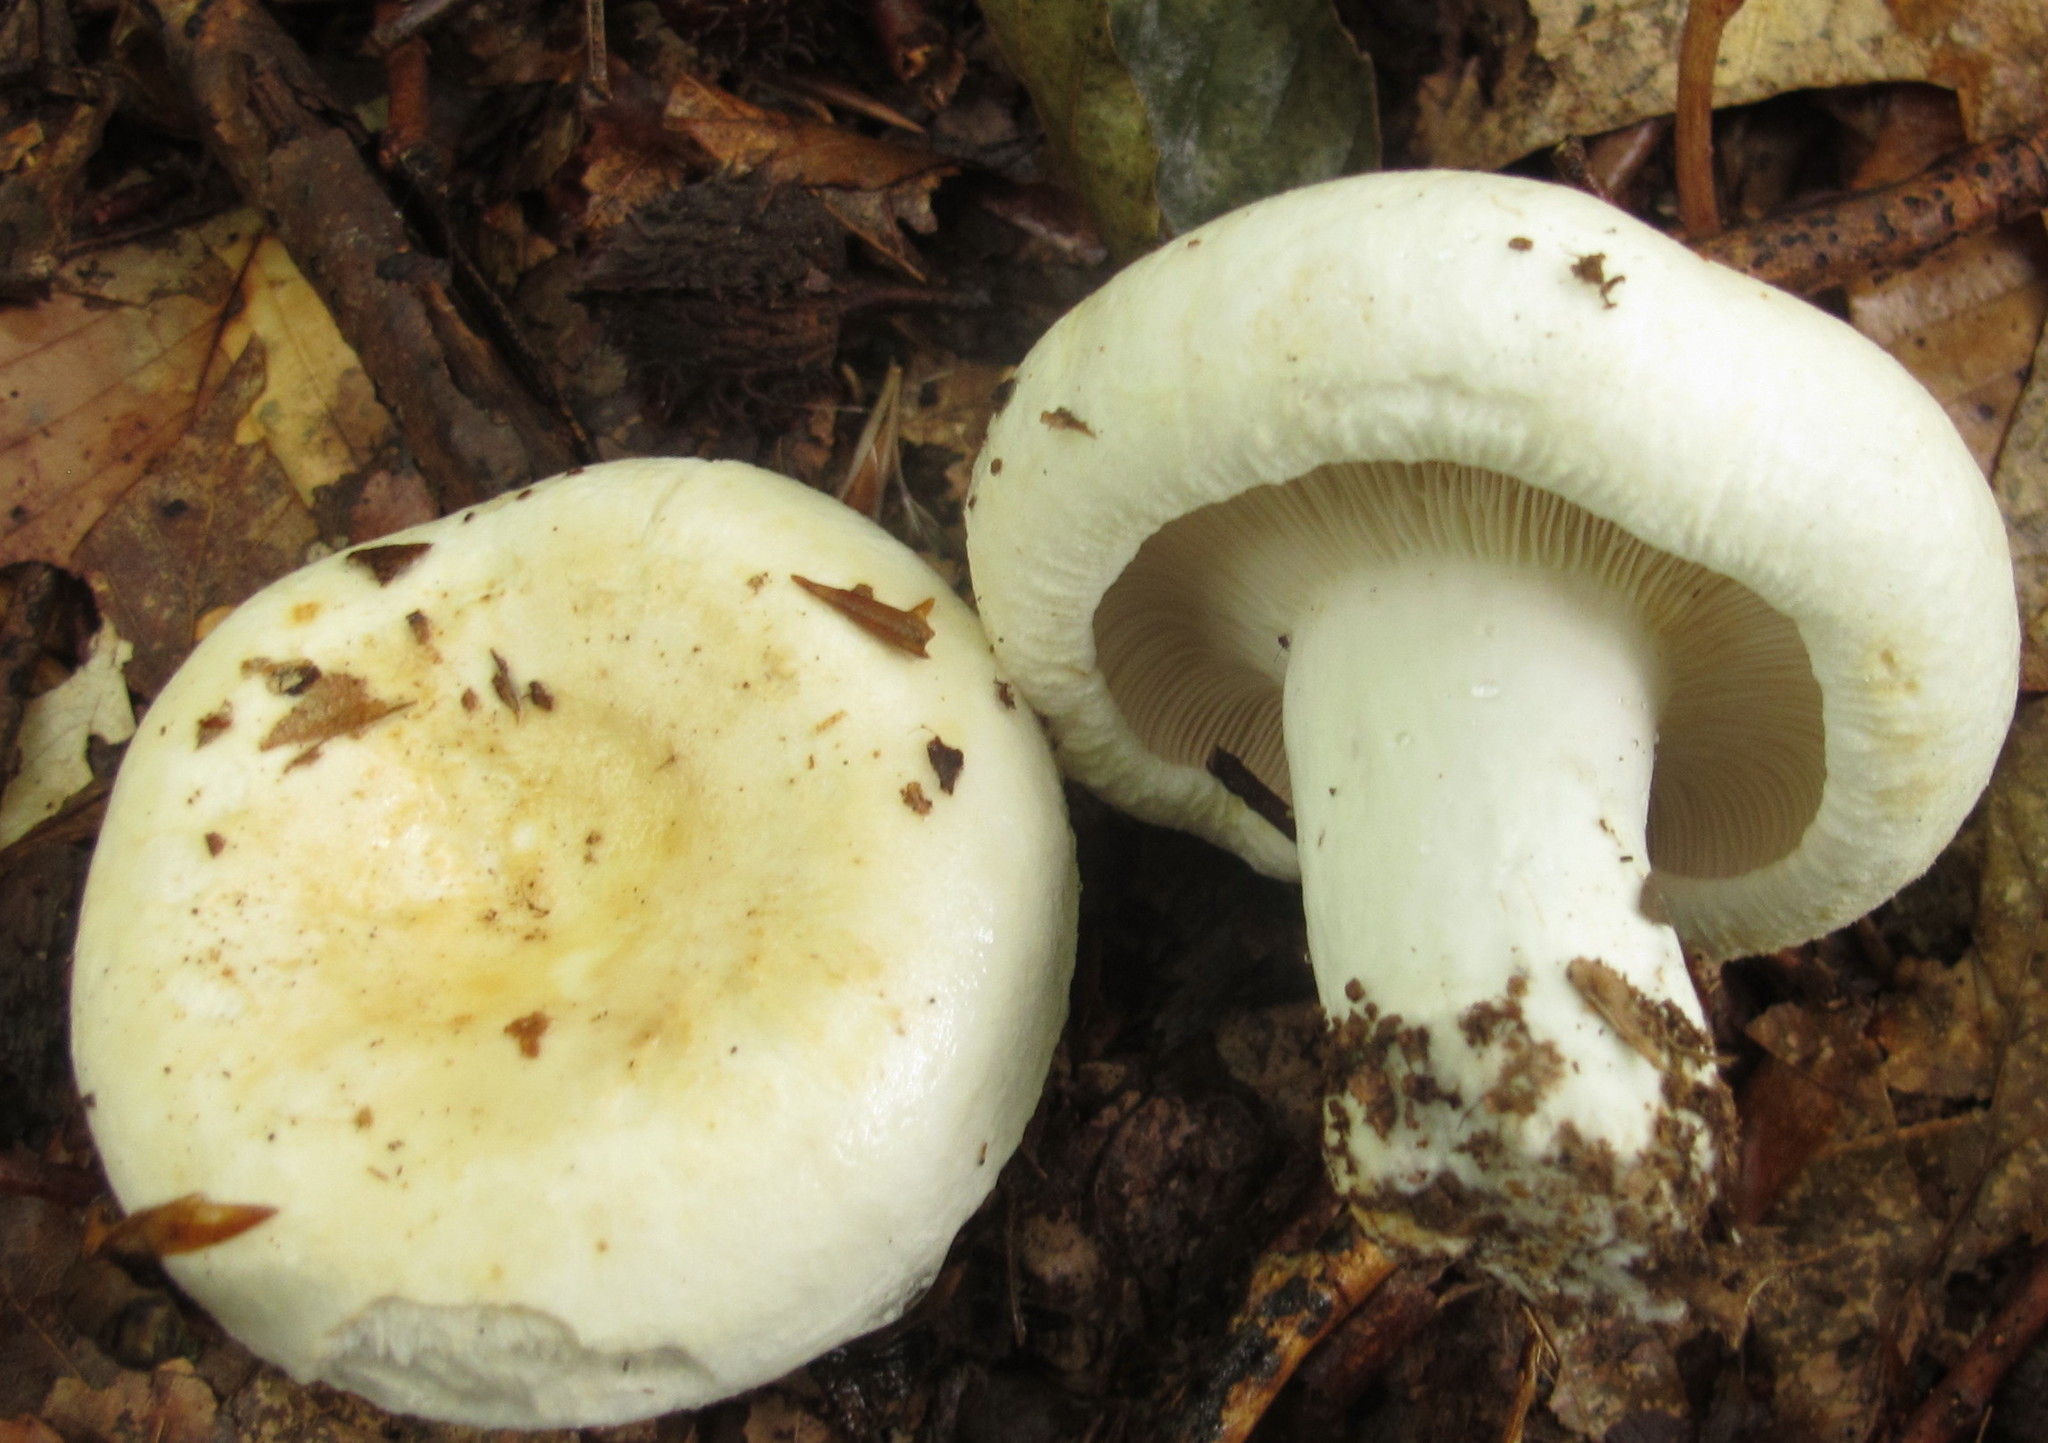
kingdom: Fungi
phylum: Basidiomycota
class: Agaricomycetes
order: Russulales
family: Russulaceae
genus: Lactifluus
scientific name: Lactifluus
